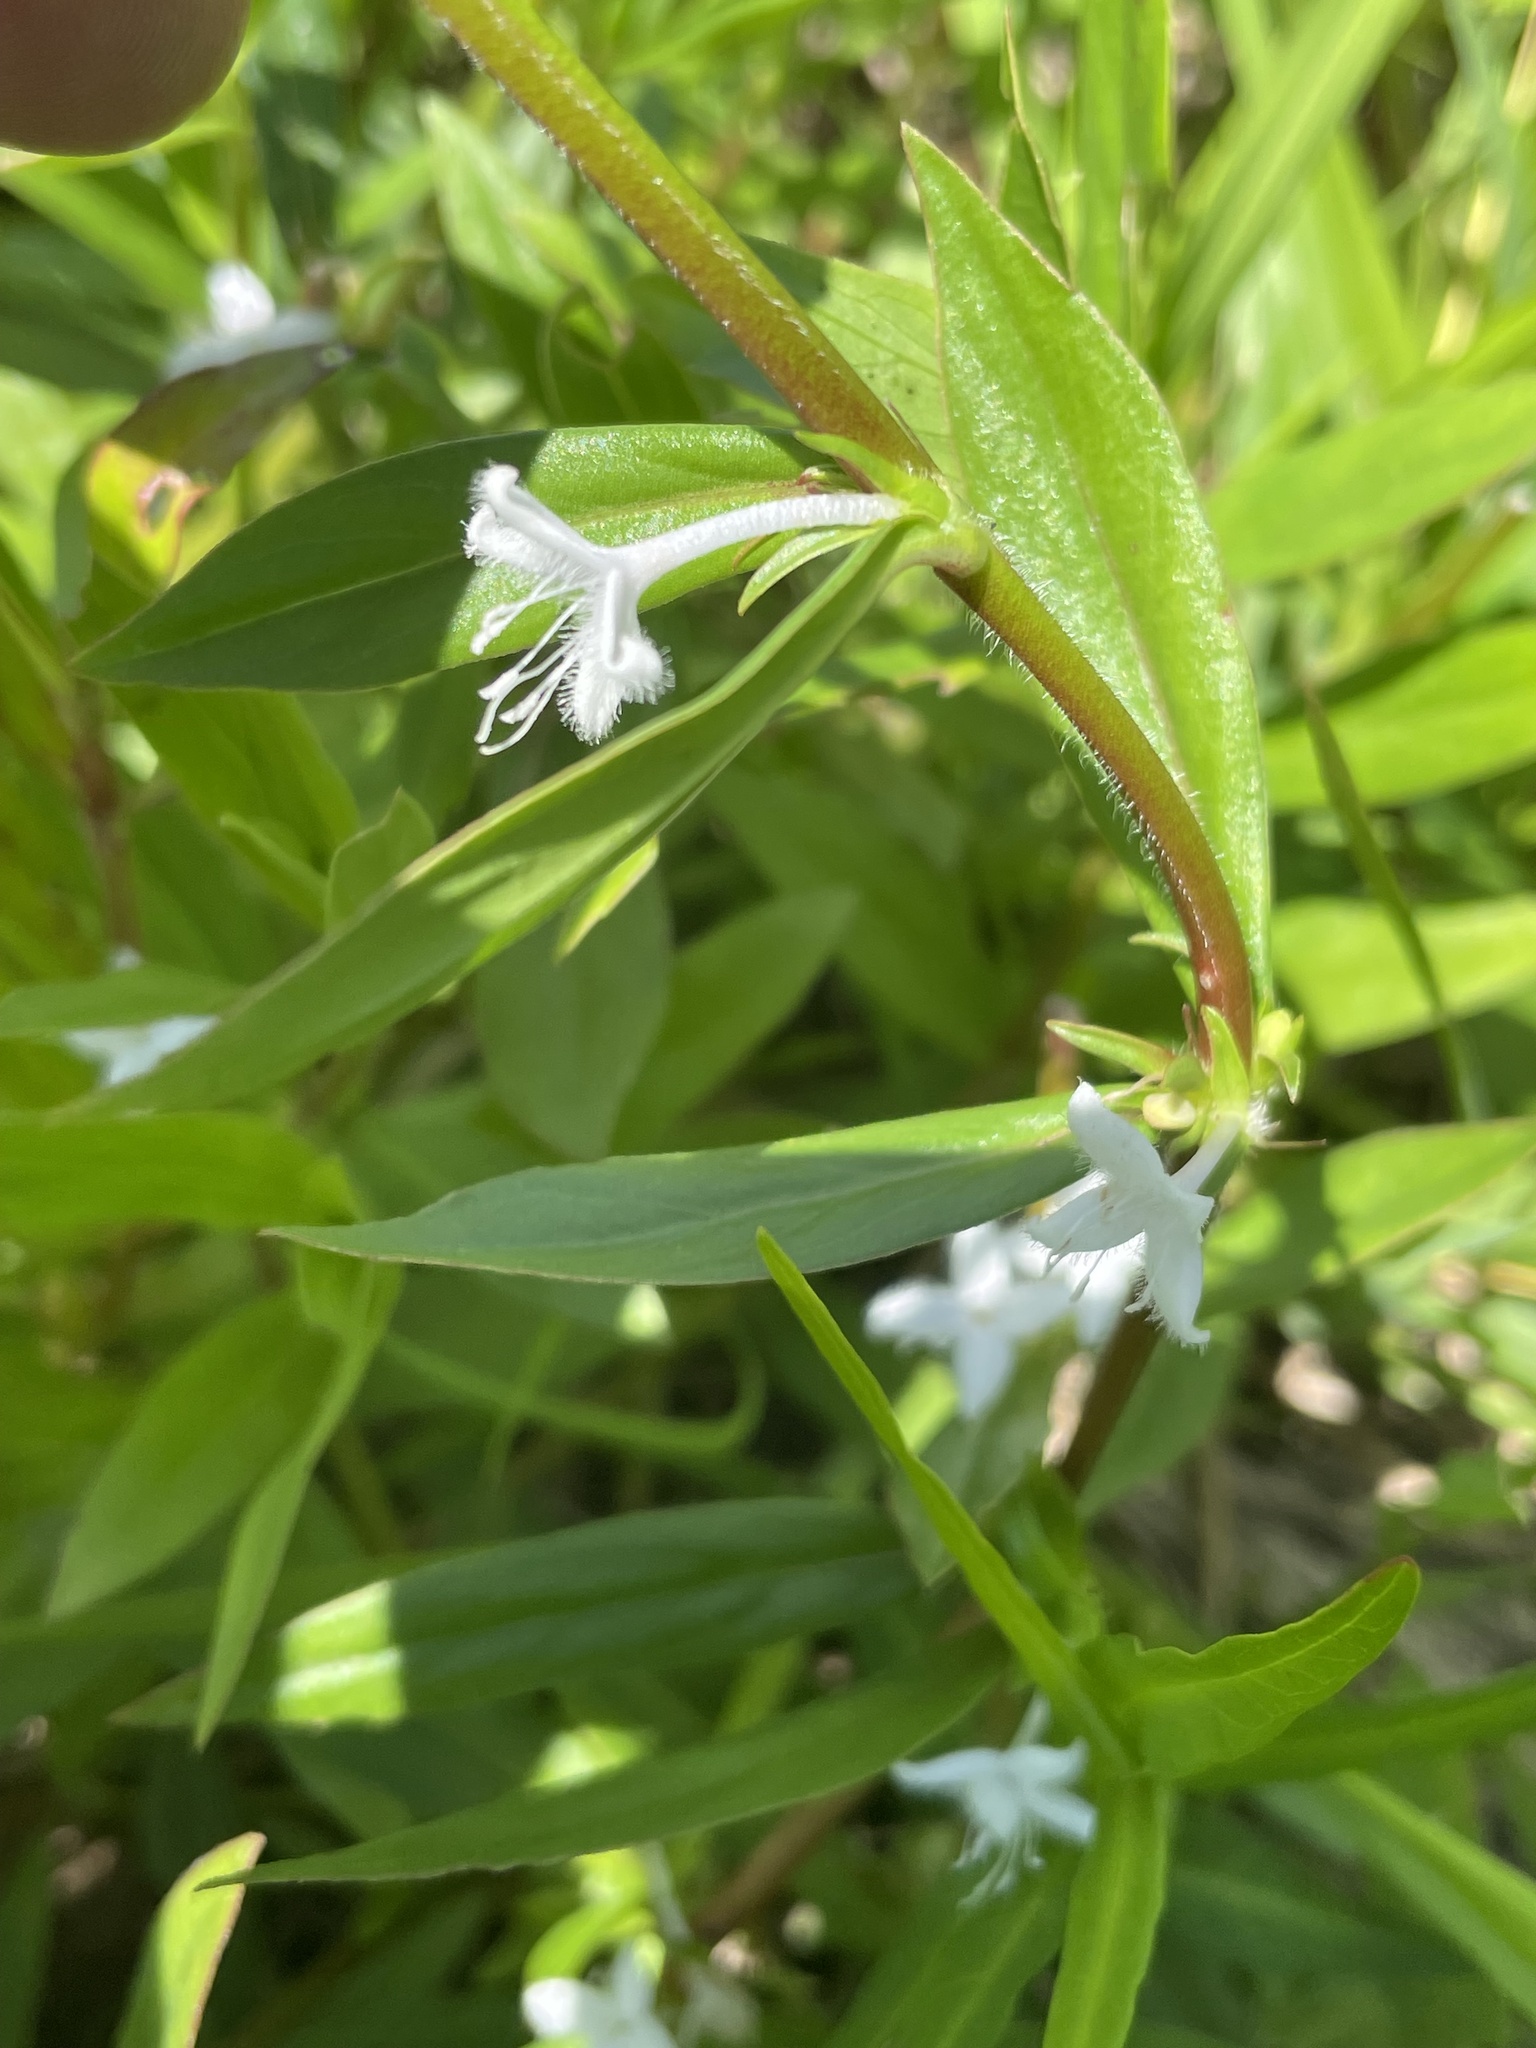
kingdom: Plantae
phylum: Tracheophyta
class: Magnoliopsida
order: Gentianales
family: Rubiaceae
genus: Diodia
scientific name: Diodia virginiana
